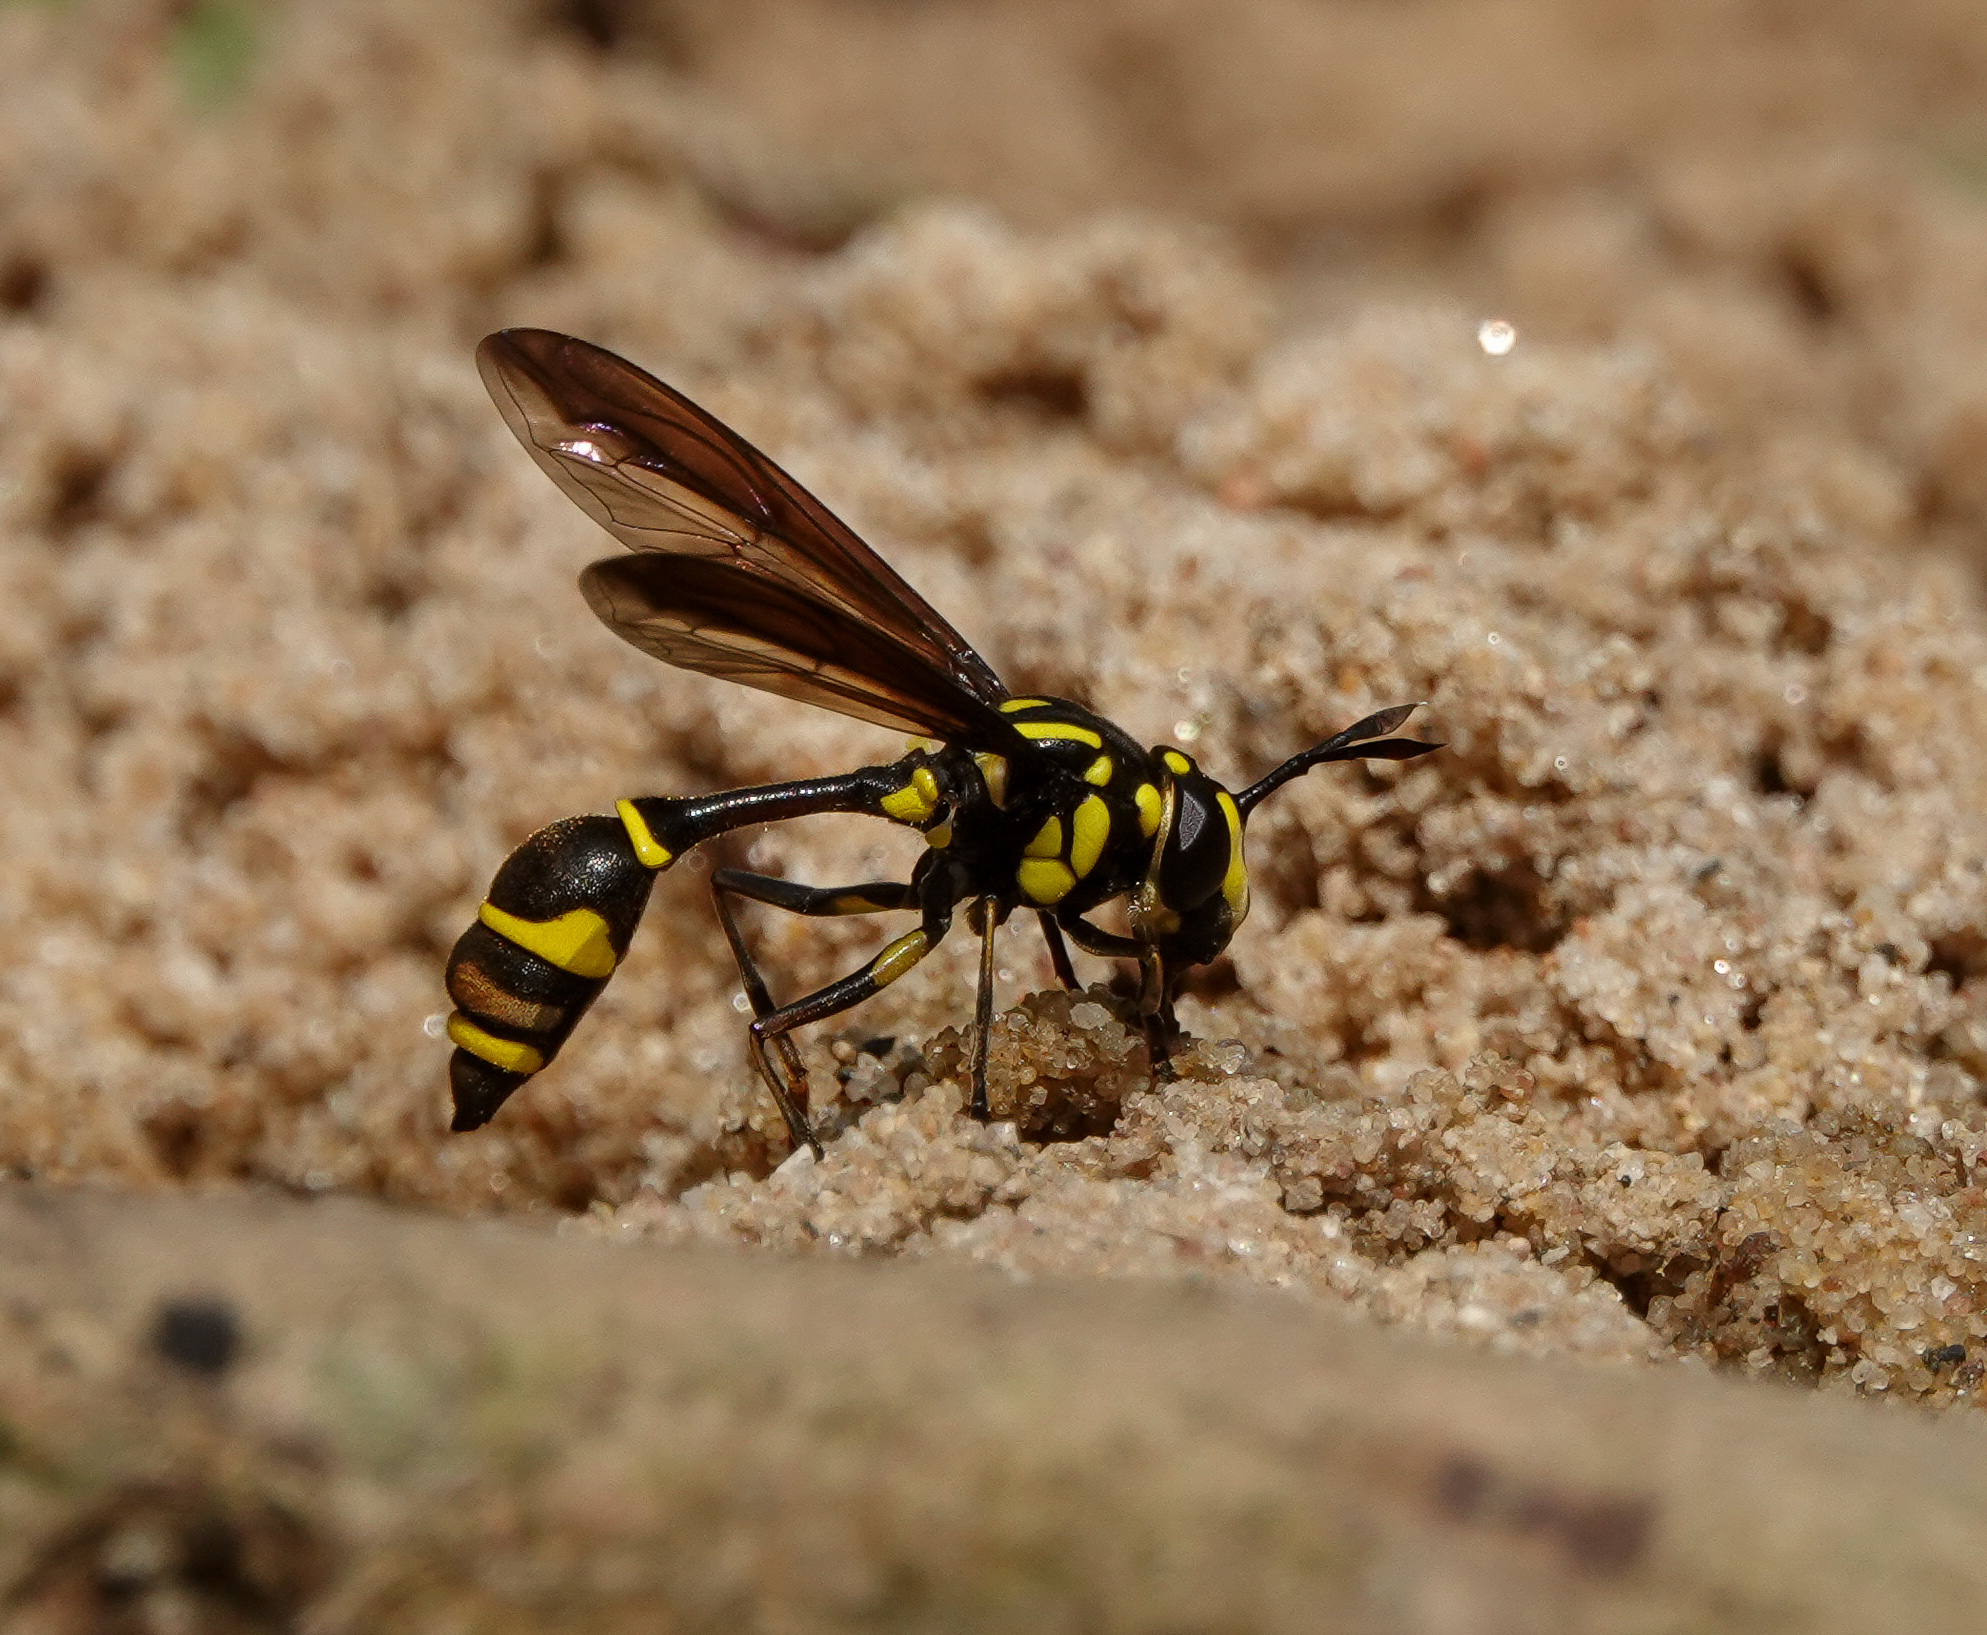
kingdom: Animalia
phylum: Arthropoda
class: Insecta
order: Diptera
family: Syrphidae
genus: Monoceromyia
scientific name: Monoceromyia trinotata
